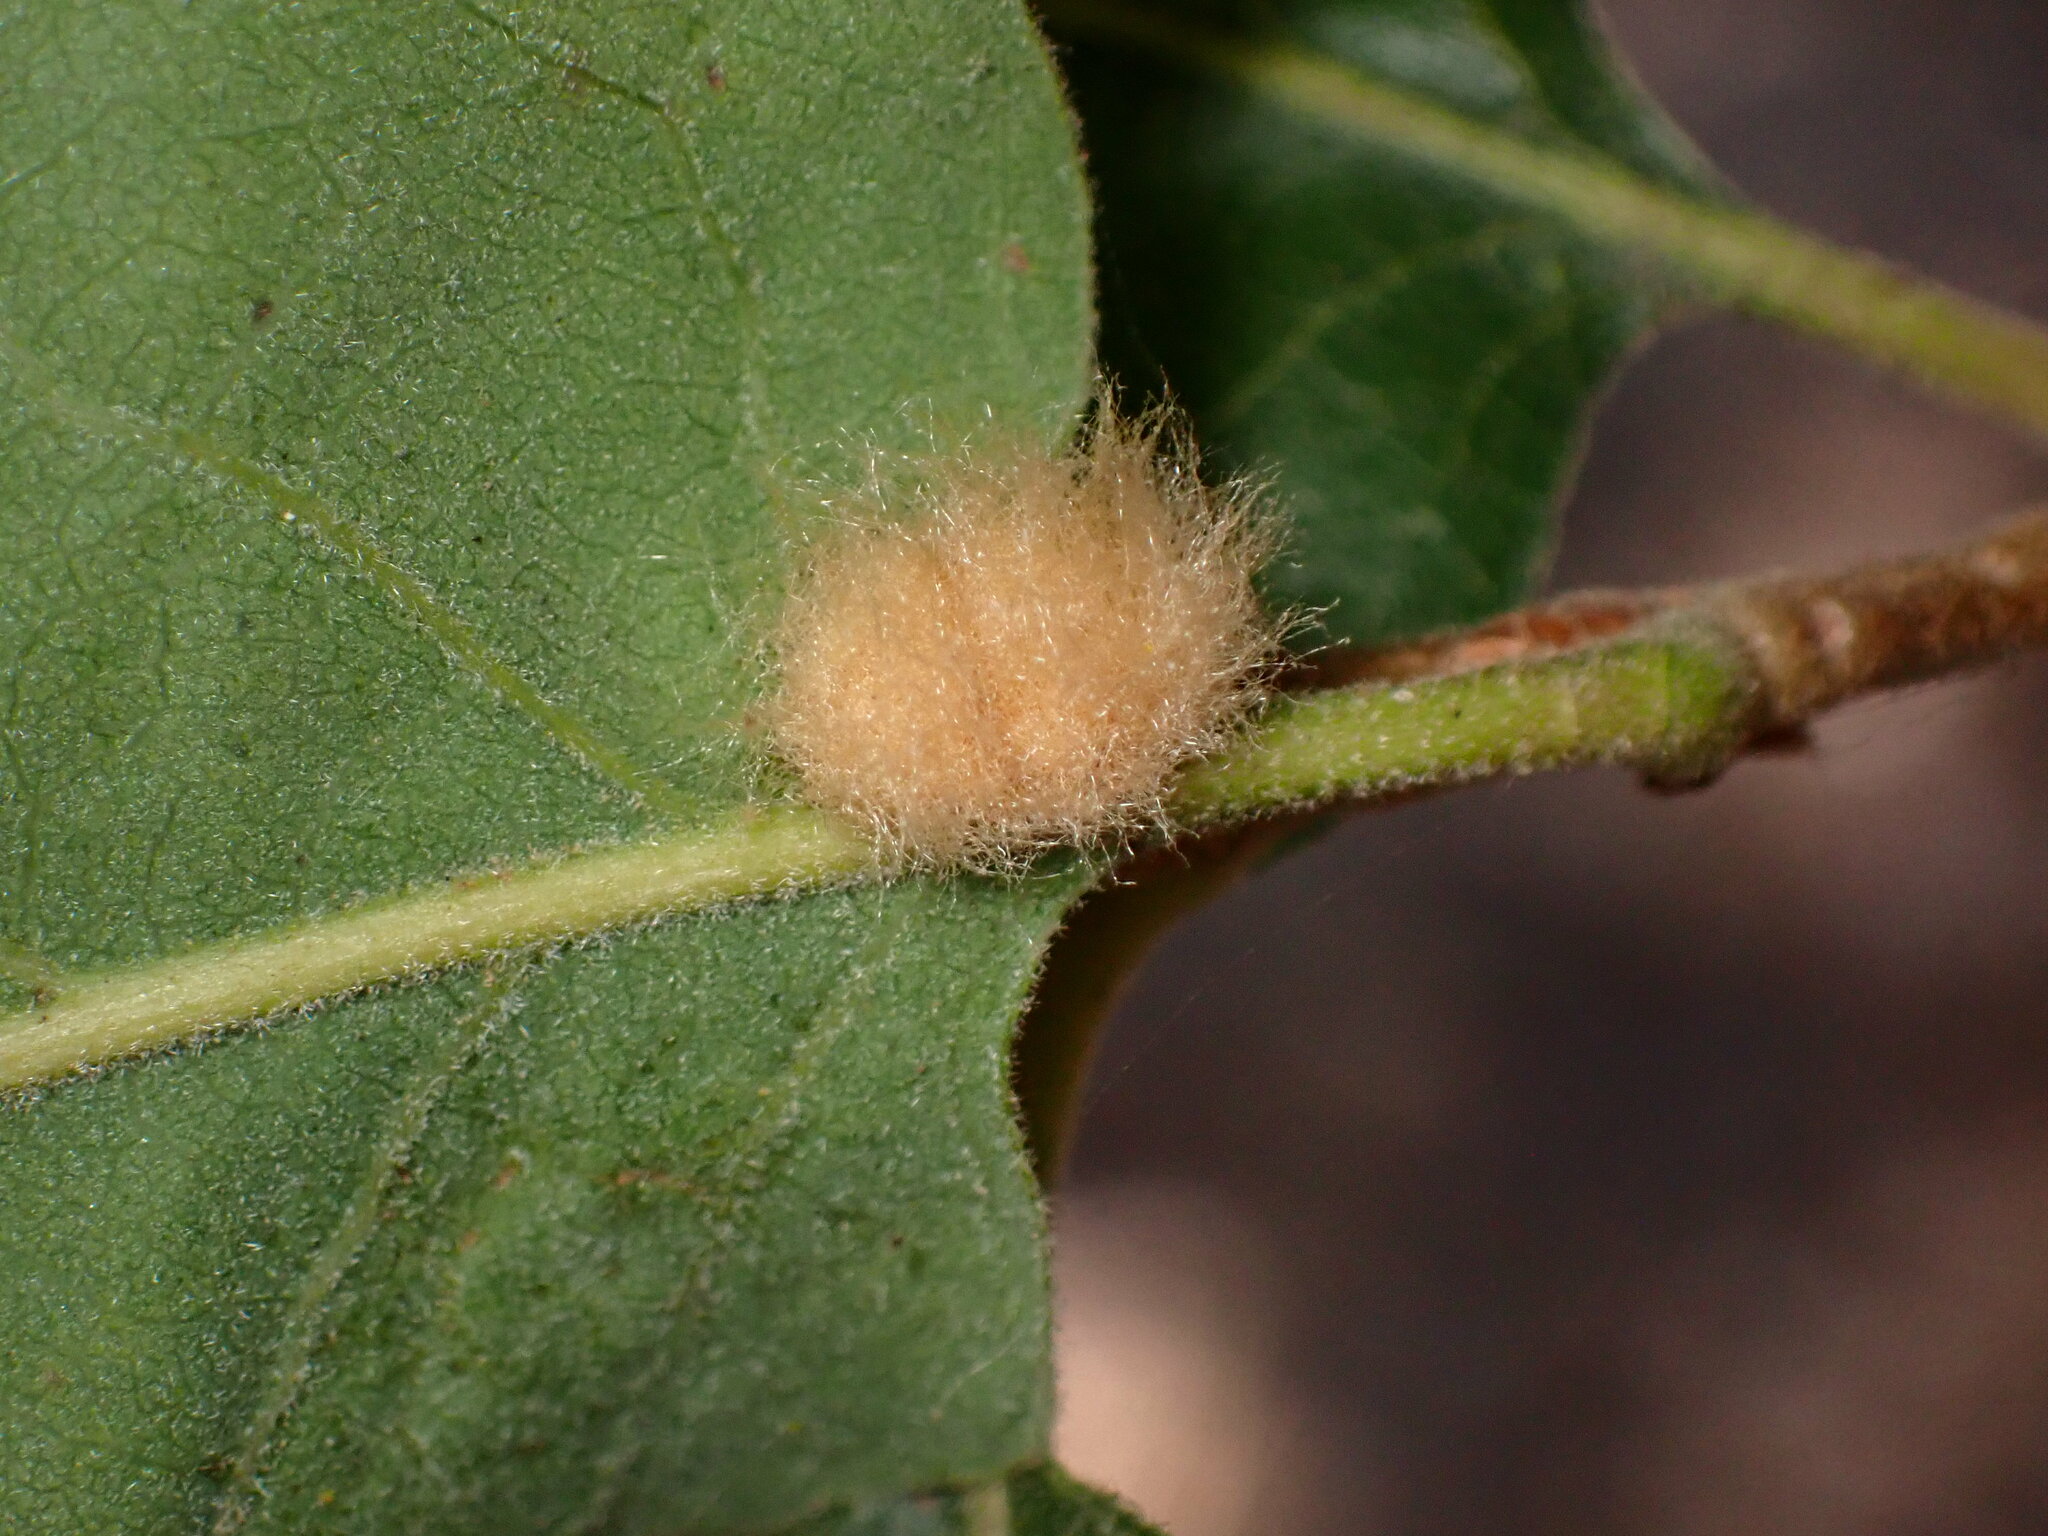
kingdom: Animalia
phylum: Arthropoda
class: Insecta
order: Hymenoptera
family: Cynipidae
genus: Andricus
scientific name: Andricus Druon fullawayi
